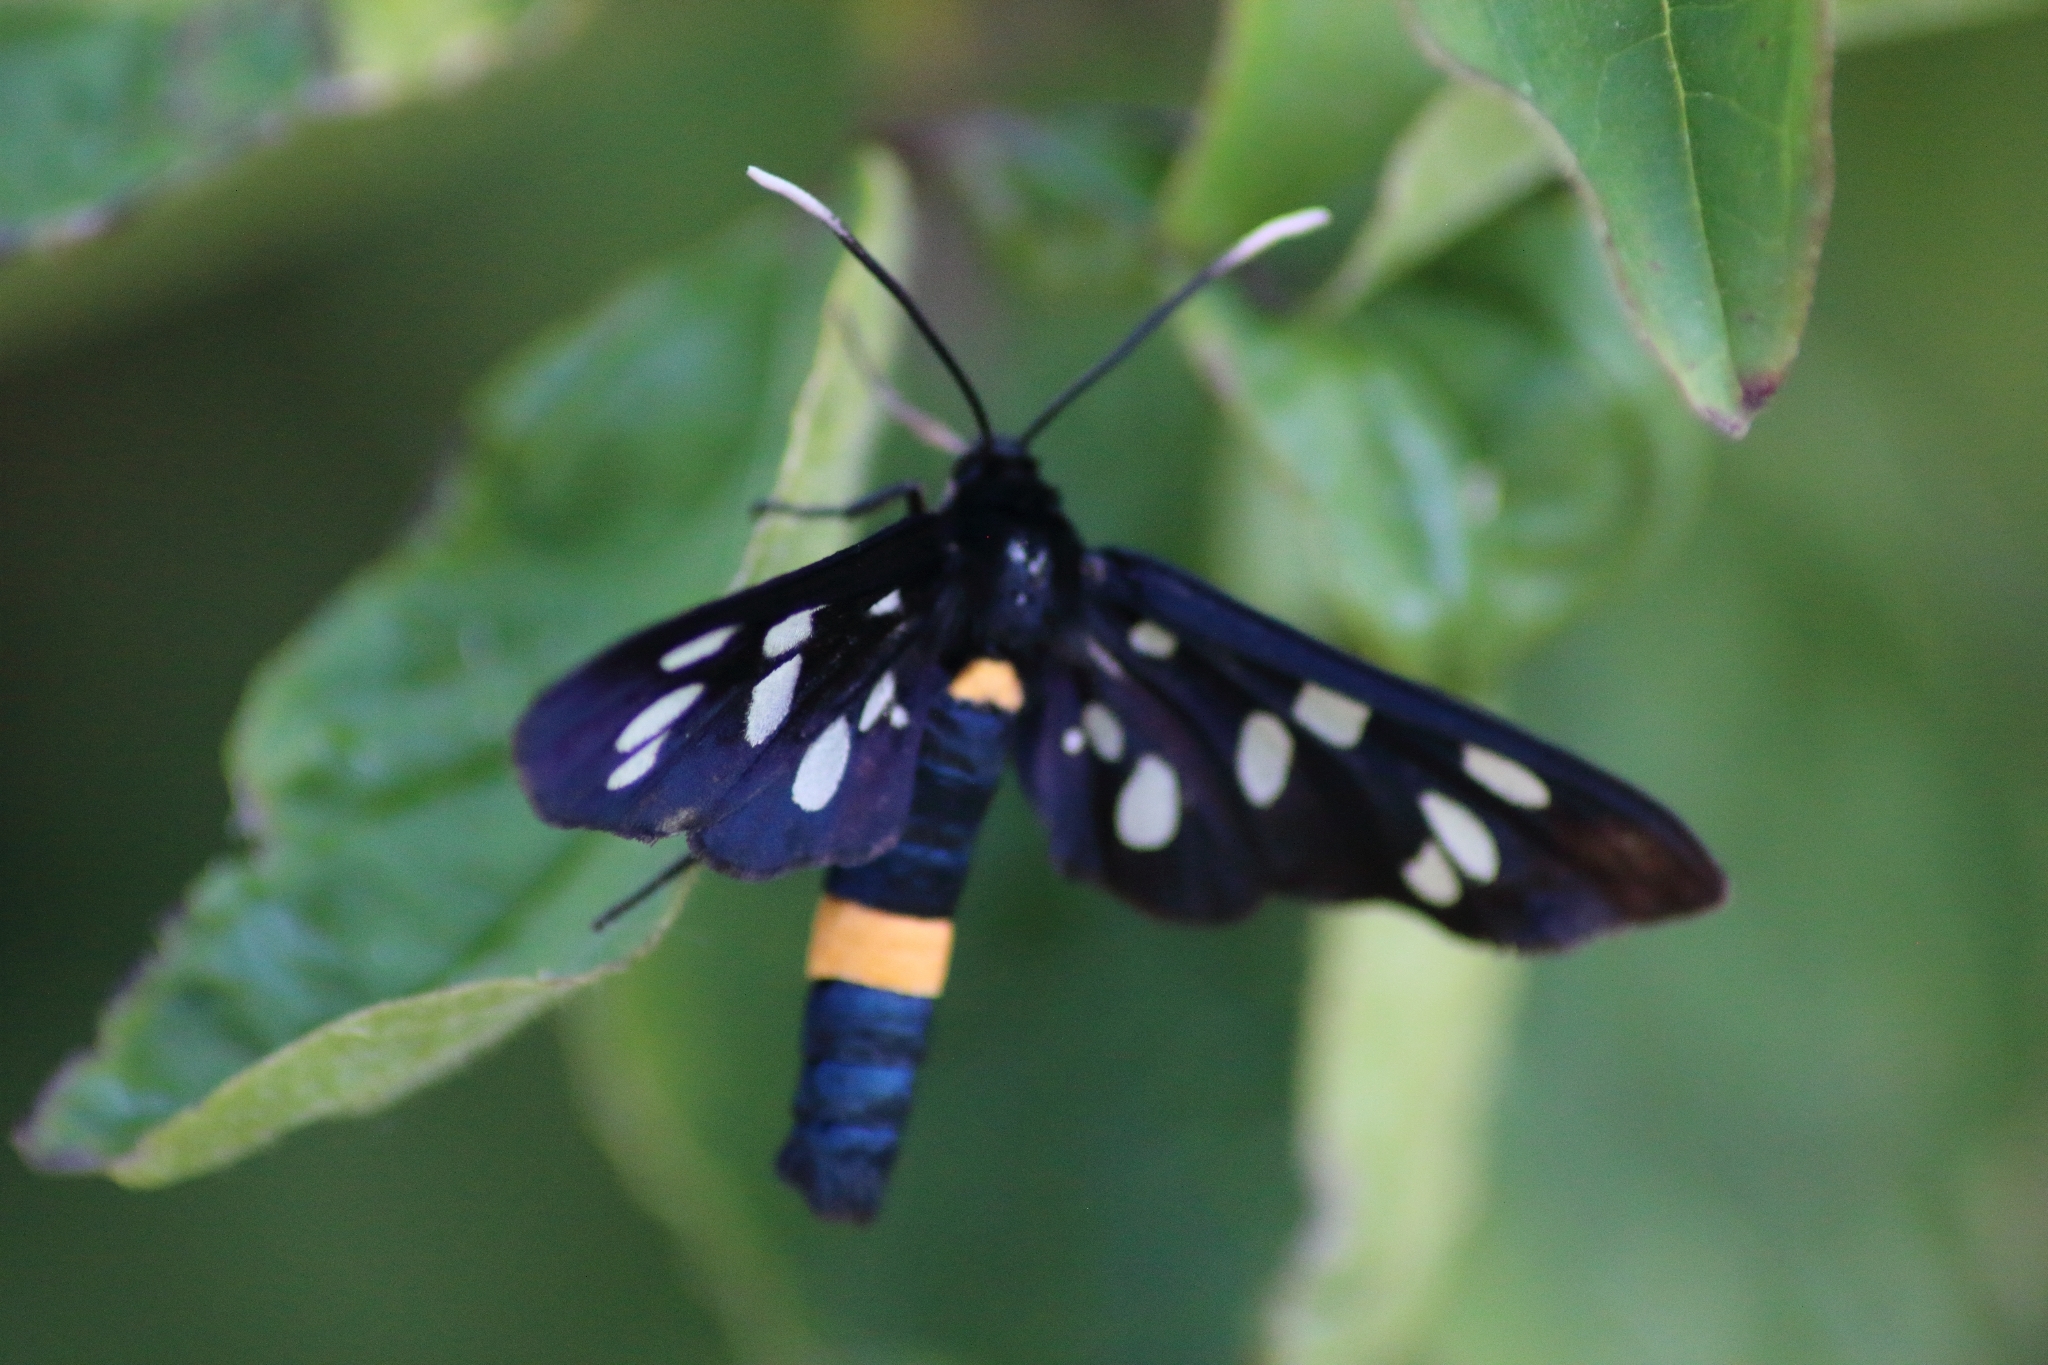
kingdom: Animalia
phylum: Arthropoda
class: Insecta
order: Lepidoptera
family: Erebidae
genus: Amata
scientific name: Amata phegea
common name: Nine-spotted
